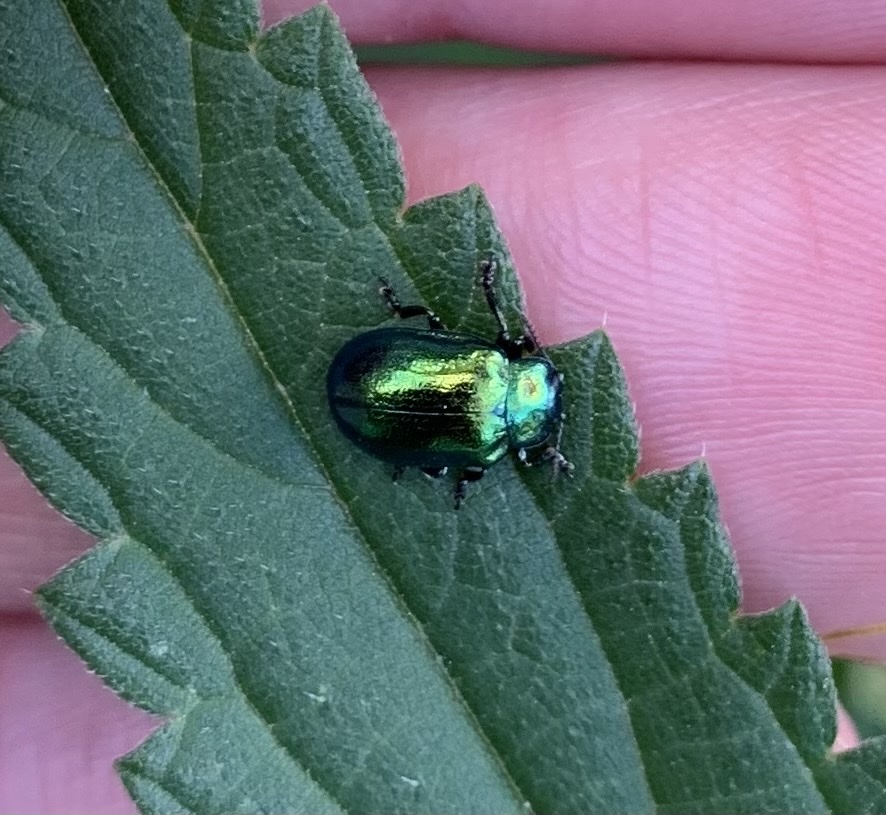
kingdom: Animalia
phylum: Arthropoda
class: Insecta
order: Coleoptera
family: Chrysomelidae
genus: Plagiosterna
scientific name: Plagiosterna aenea
